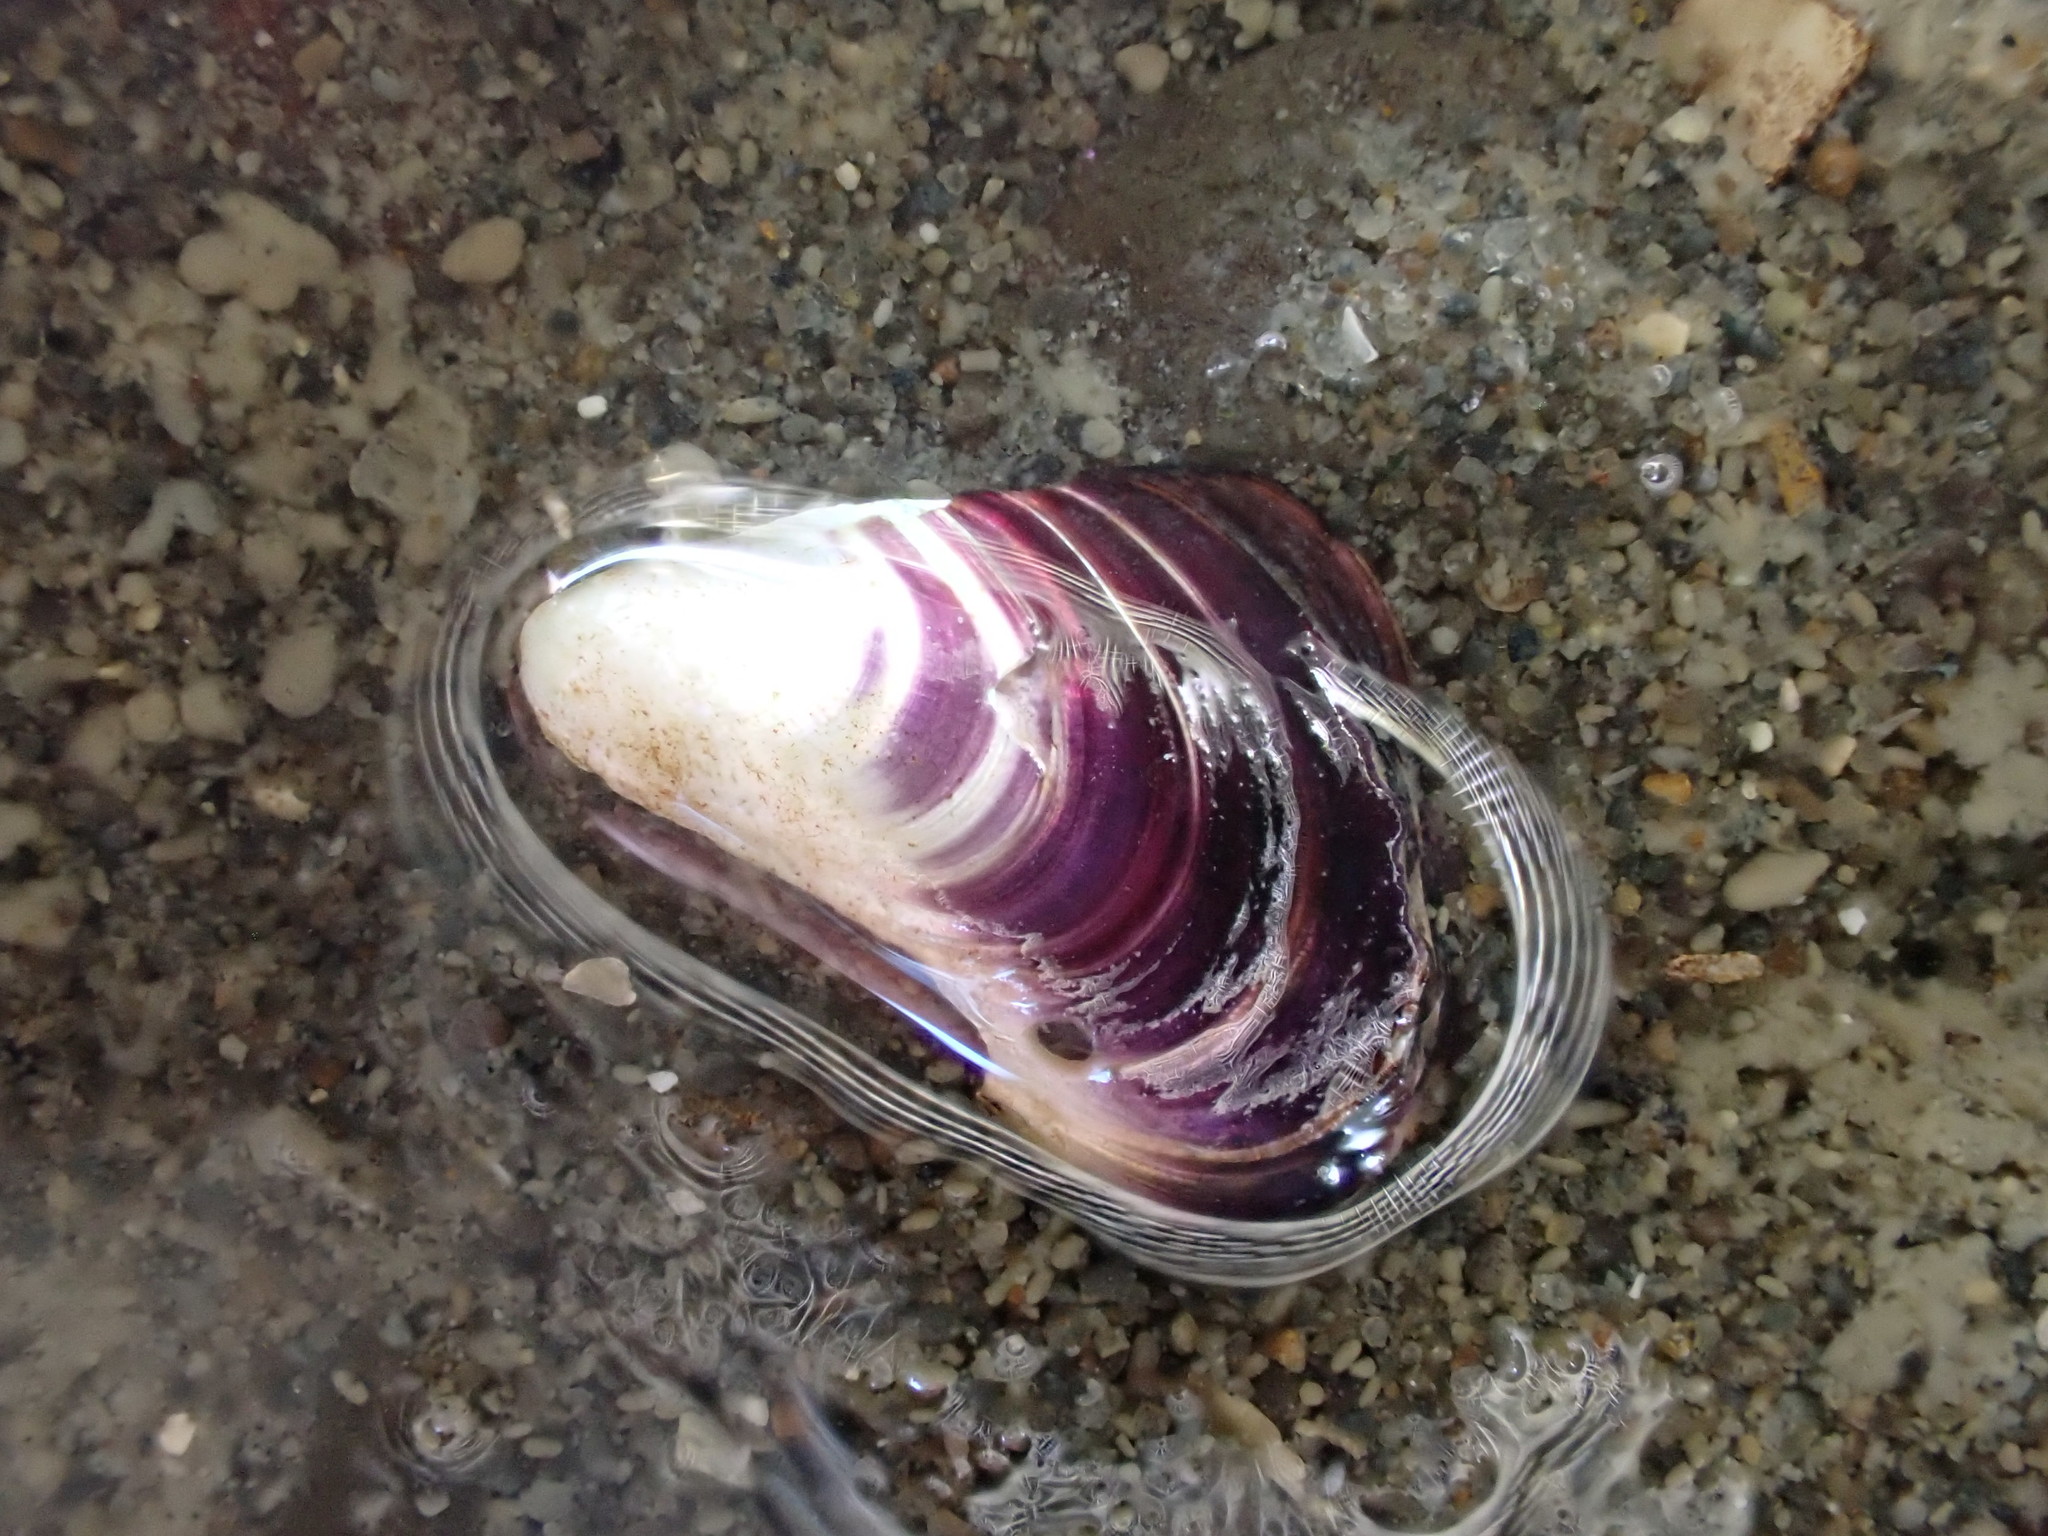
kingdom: Animalia
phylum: Mollusca
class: Bivalvia
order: Mytilida
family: Mytilidae
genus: Xenostrobus
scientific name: Xenostrobus neozelanicus
